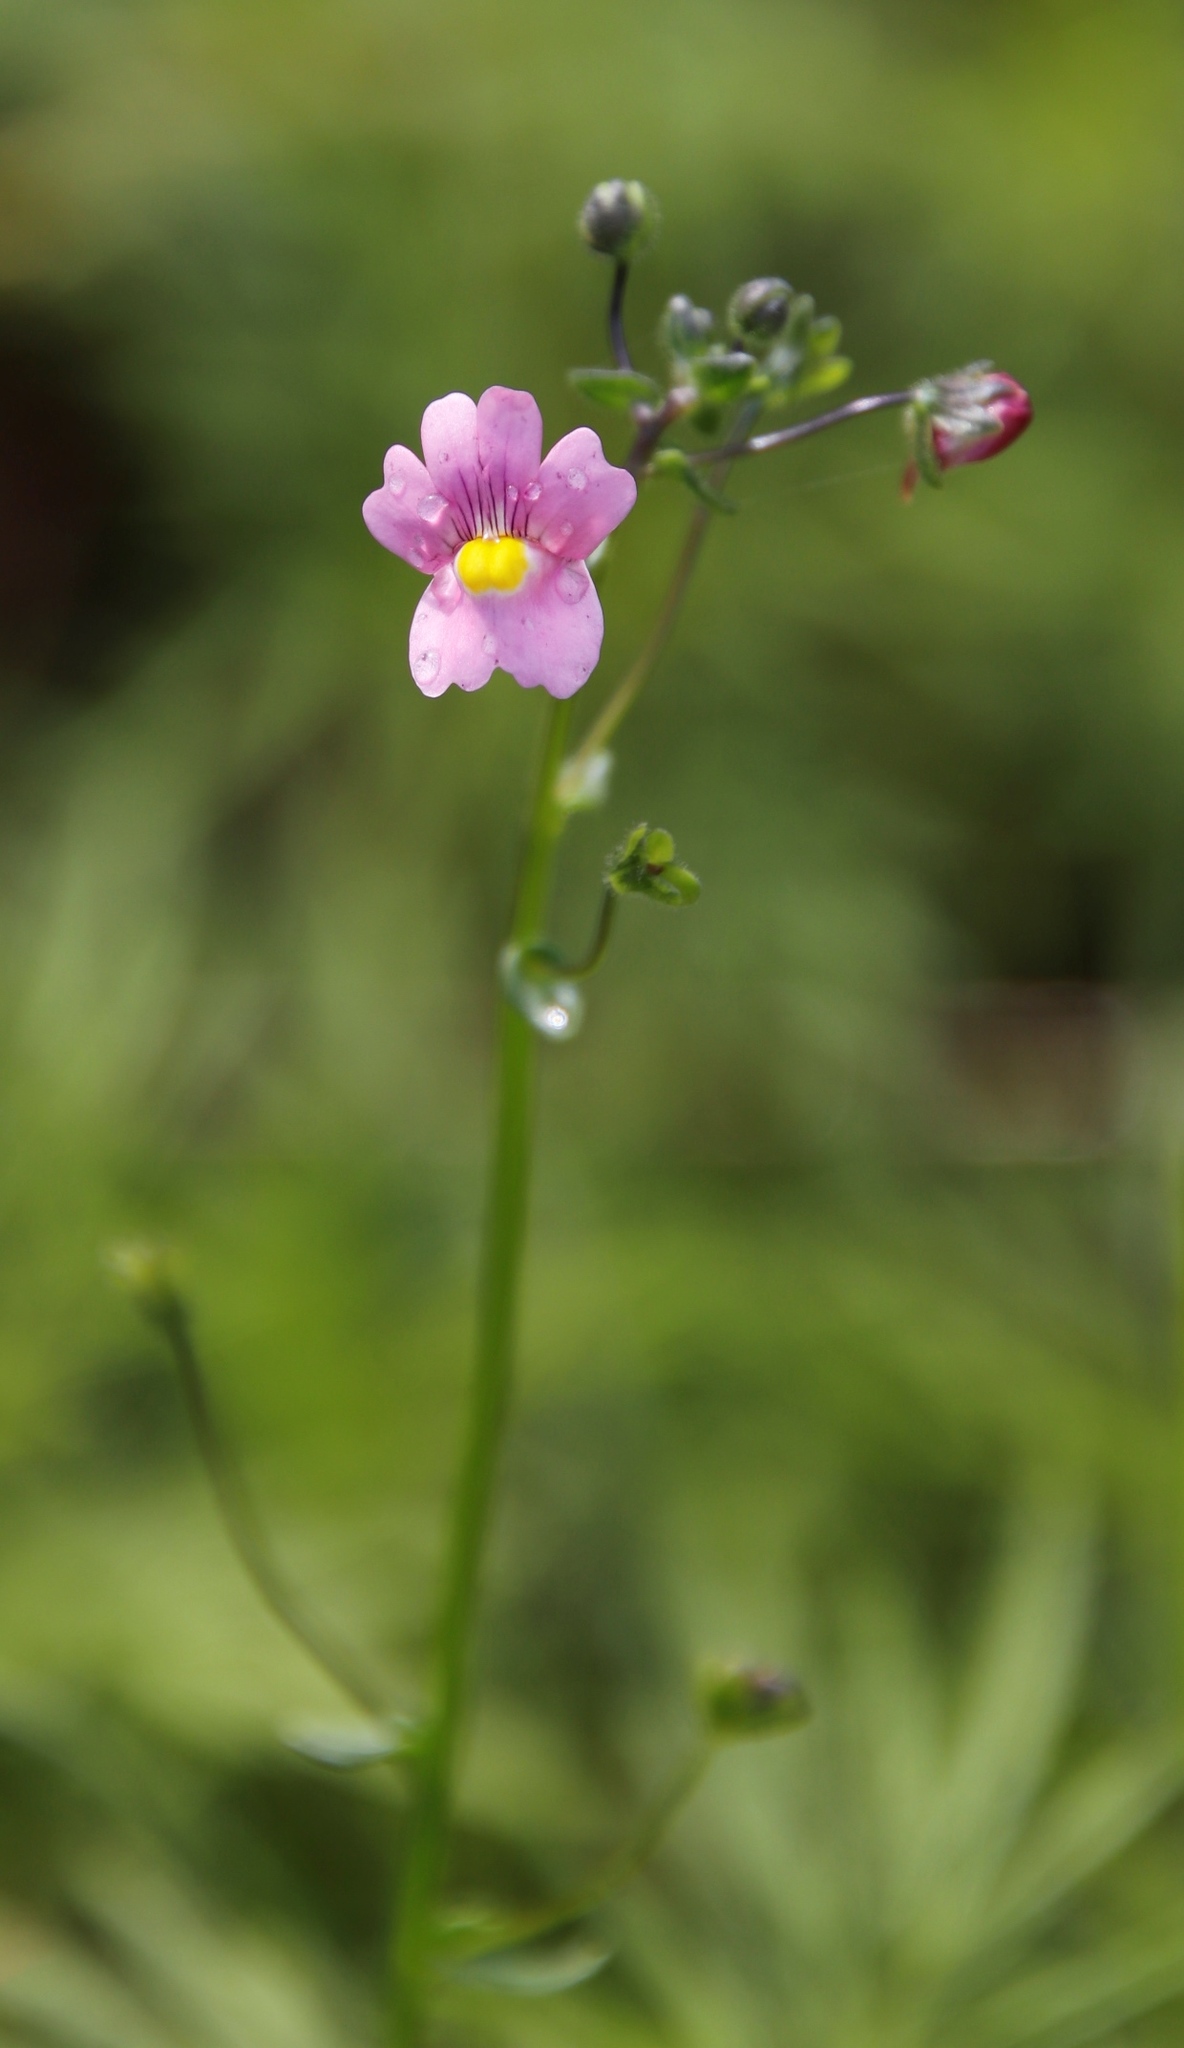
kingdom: Plantae
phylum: Tracheophyta
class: Magnoliopsida
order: Lamiales
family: Scrophulariaceae
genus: Nemesia
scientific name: Nemesia caerulea
